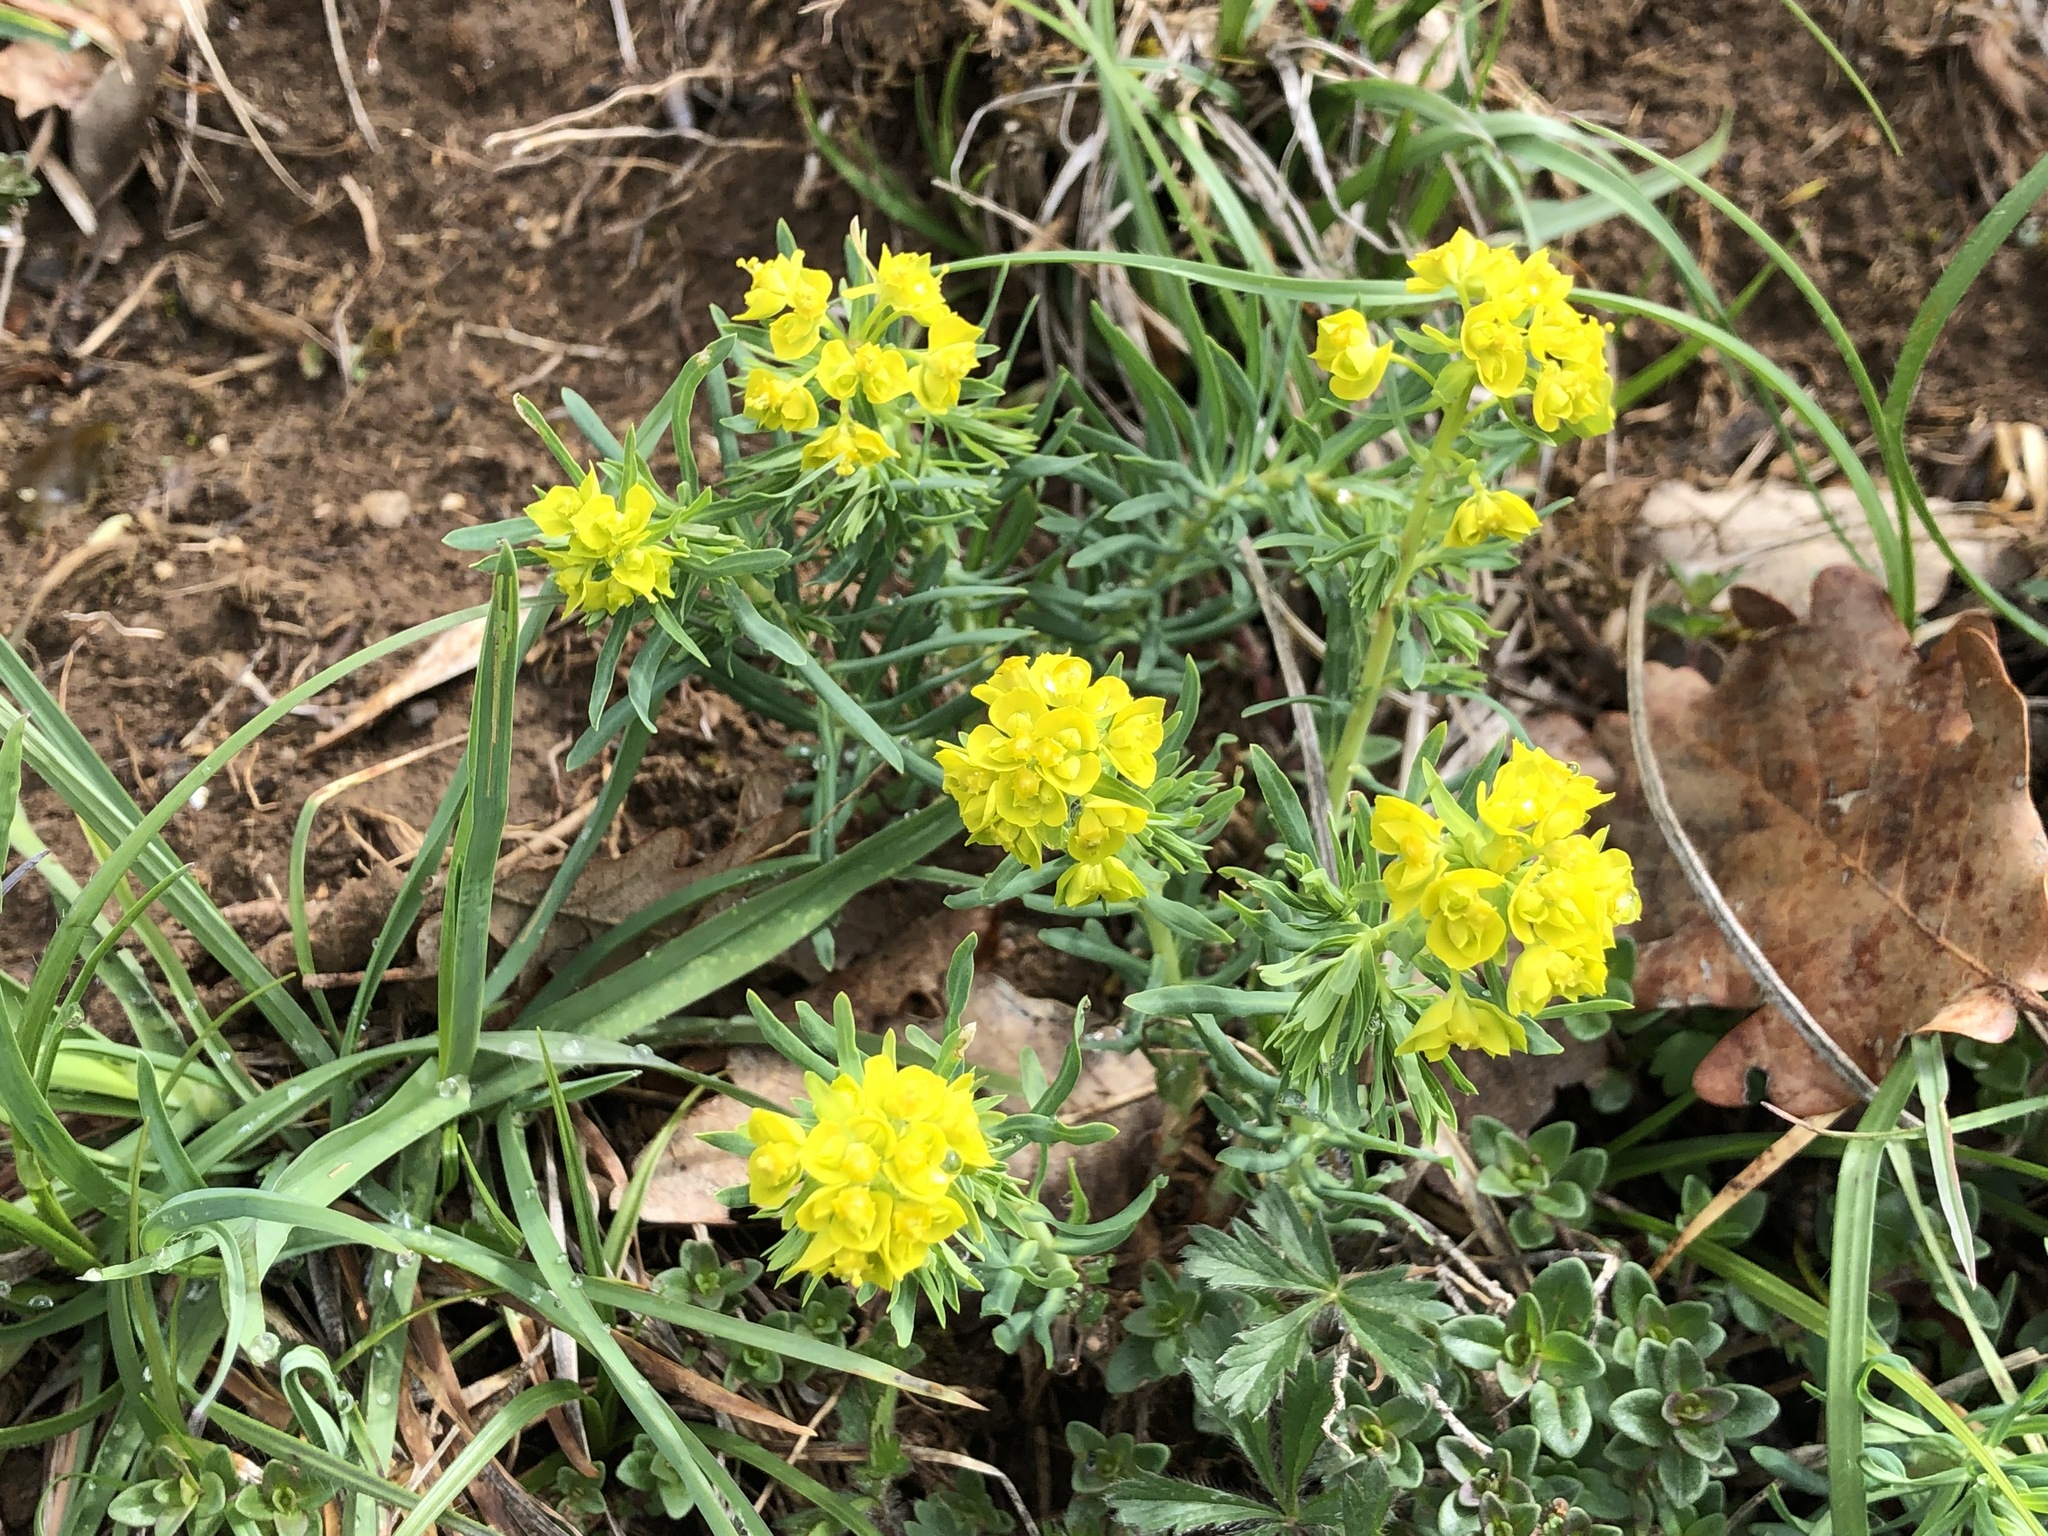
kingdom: Plantae
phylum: Tracheophyta
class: Magnoliopsida
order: Malpighiales
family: Euphorbiaceae
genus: Euphorbia
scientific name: Euphorbia cyparissias
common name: Cypress spurge
